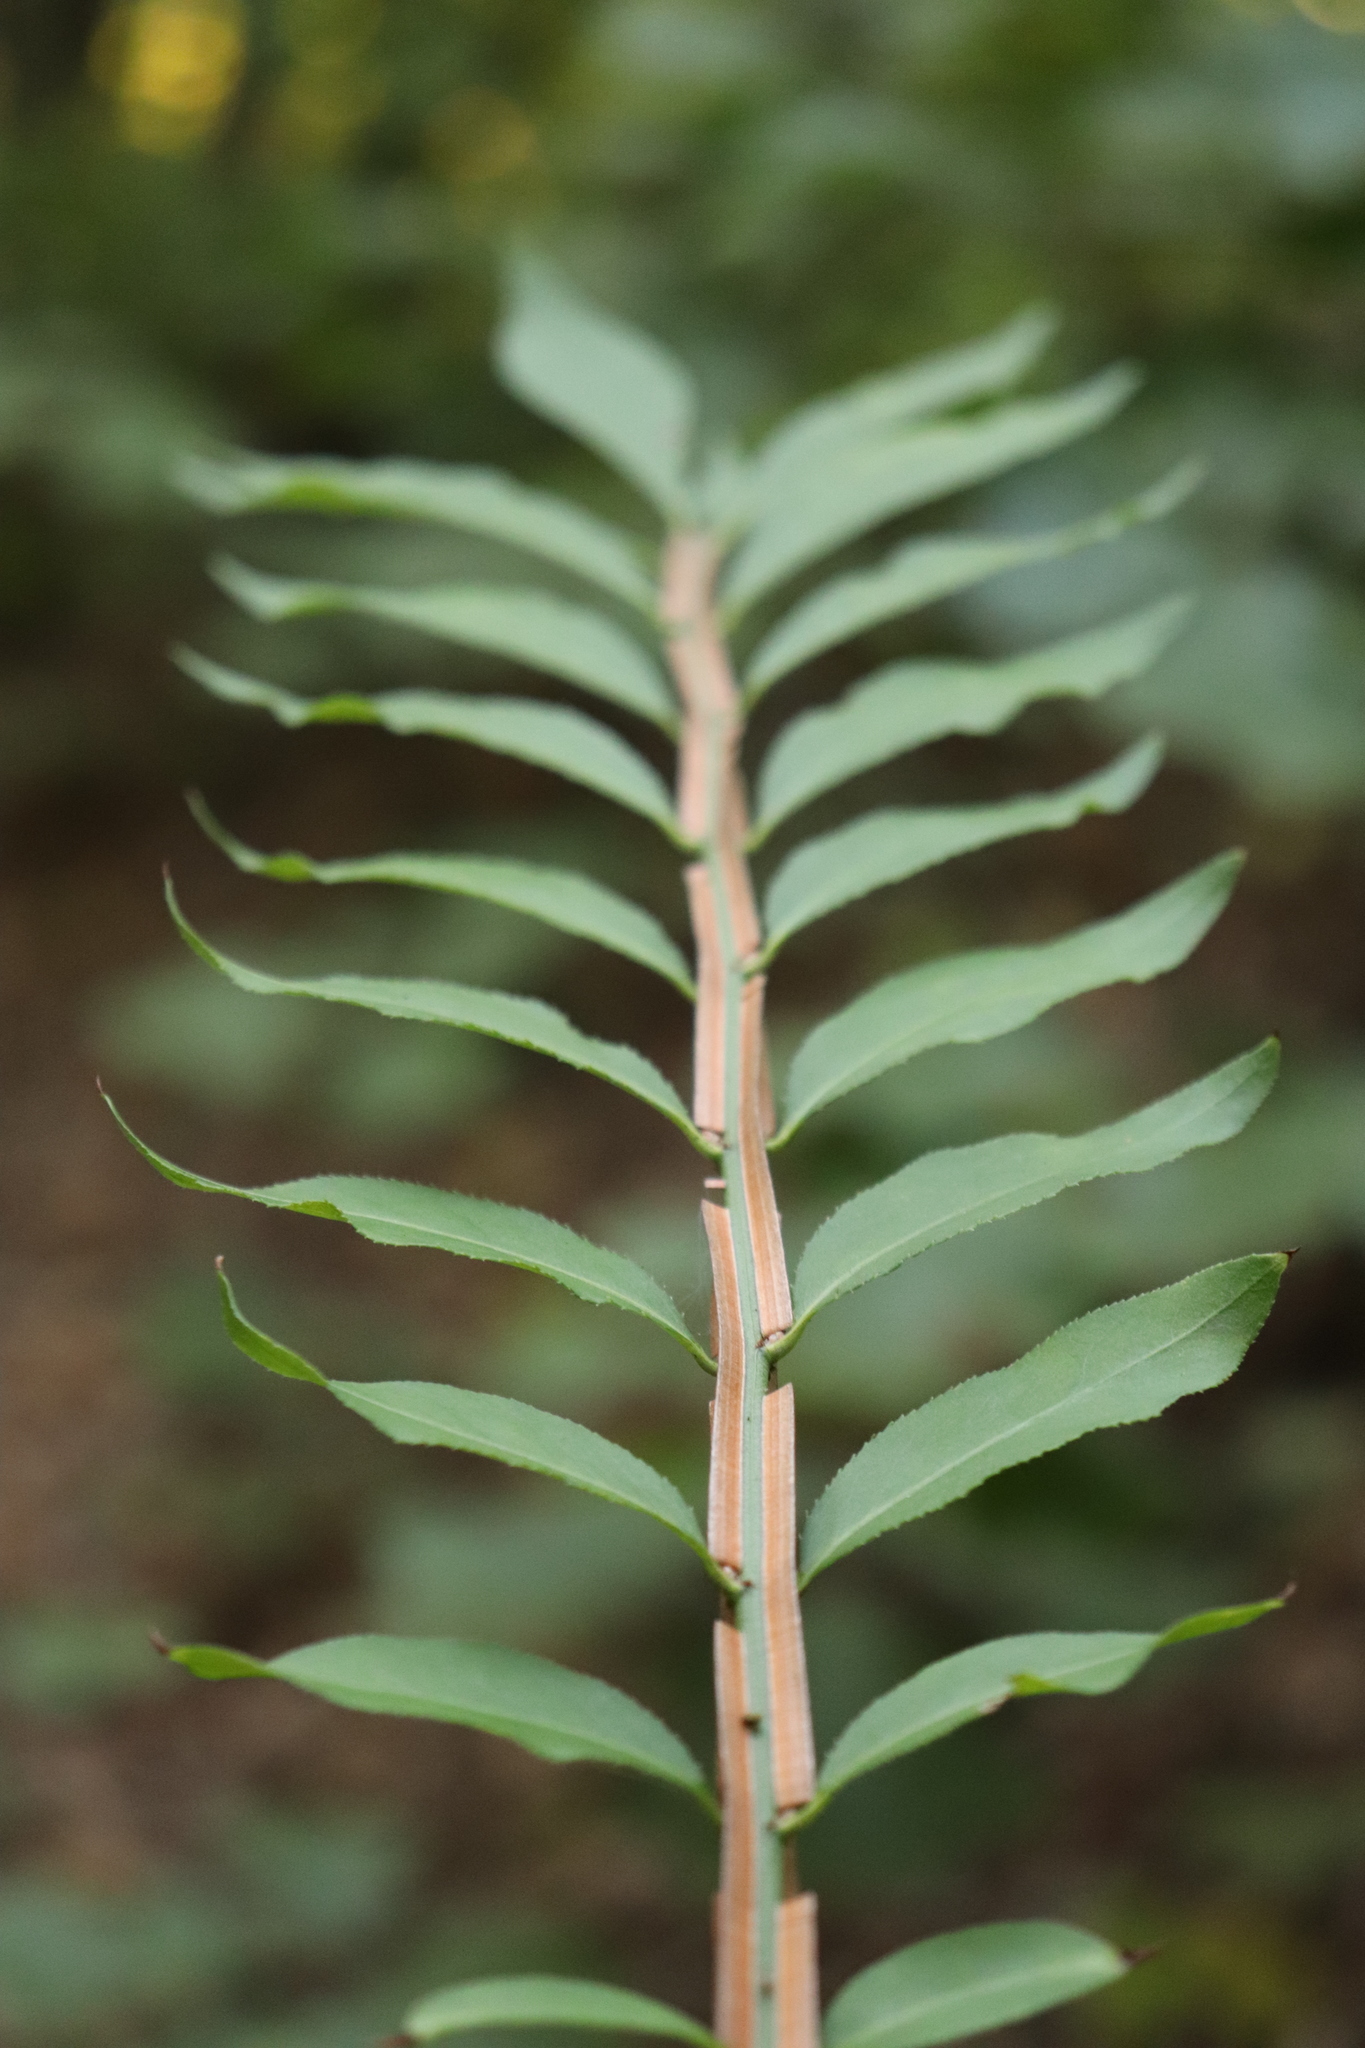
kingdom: Plantae
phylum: Tracheophyta
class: Magnoliopsida
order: Celastrales
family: Celastraceae
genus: Euonymus
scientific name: Euonymus alatus
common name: Winged euonymus
